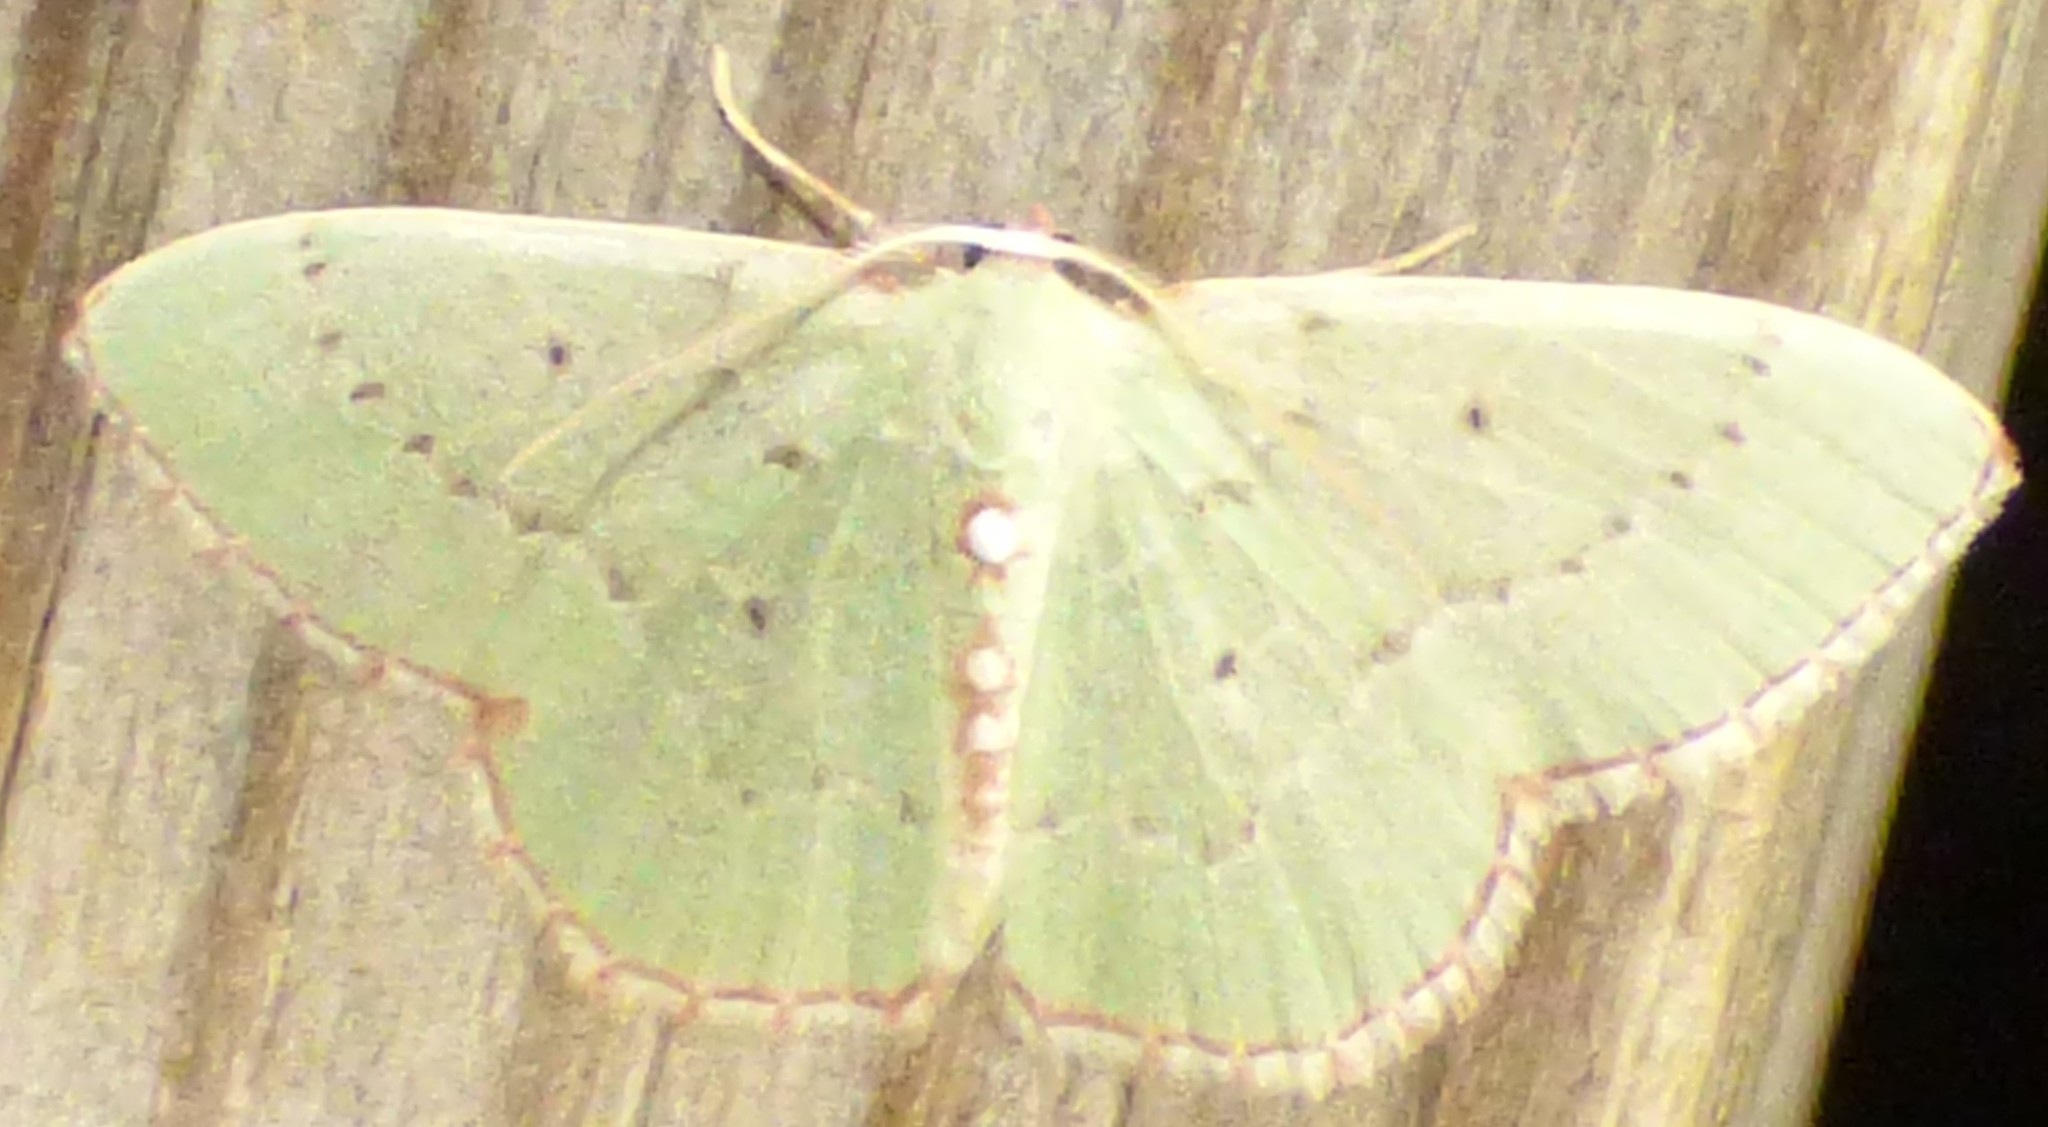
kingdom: Animalia
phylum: Arthropoda
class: Insecta
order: Lepidoptera
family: Geometridae
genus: Nemoria
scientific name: Nemoria lixaria
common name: Red-bordered emerald
